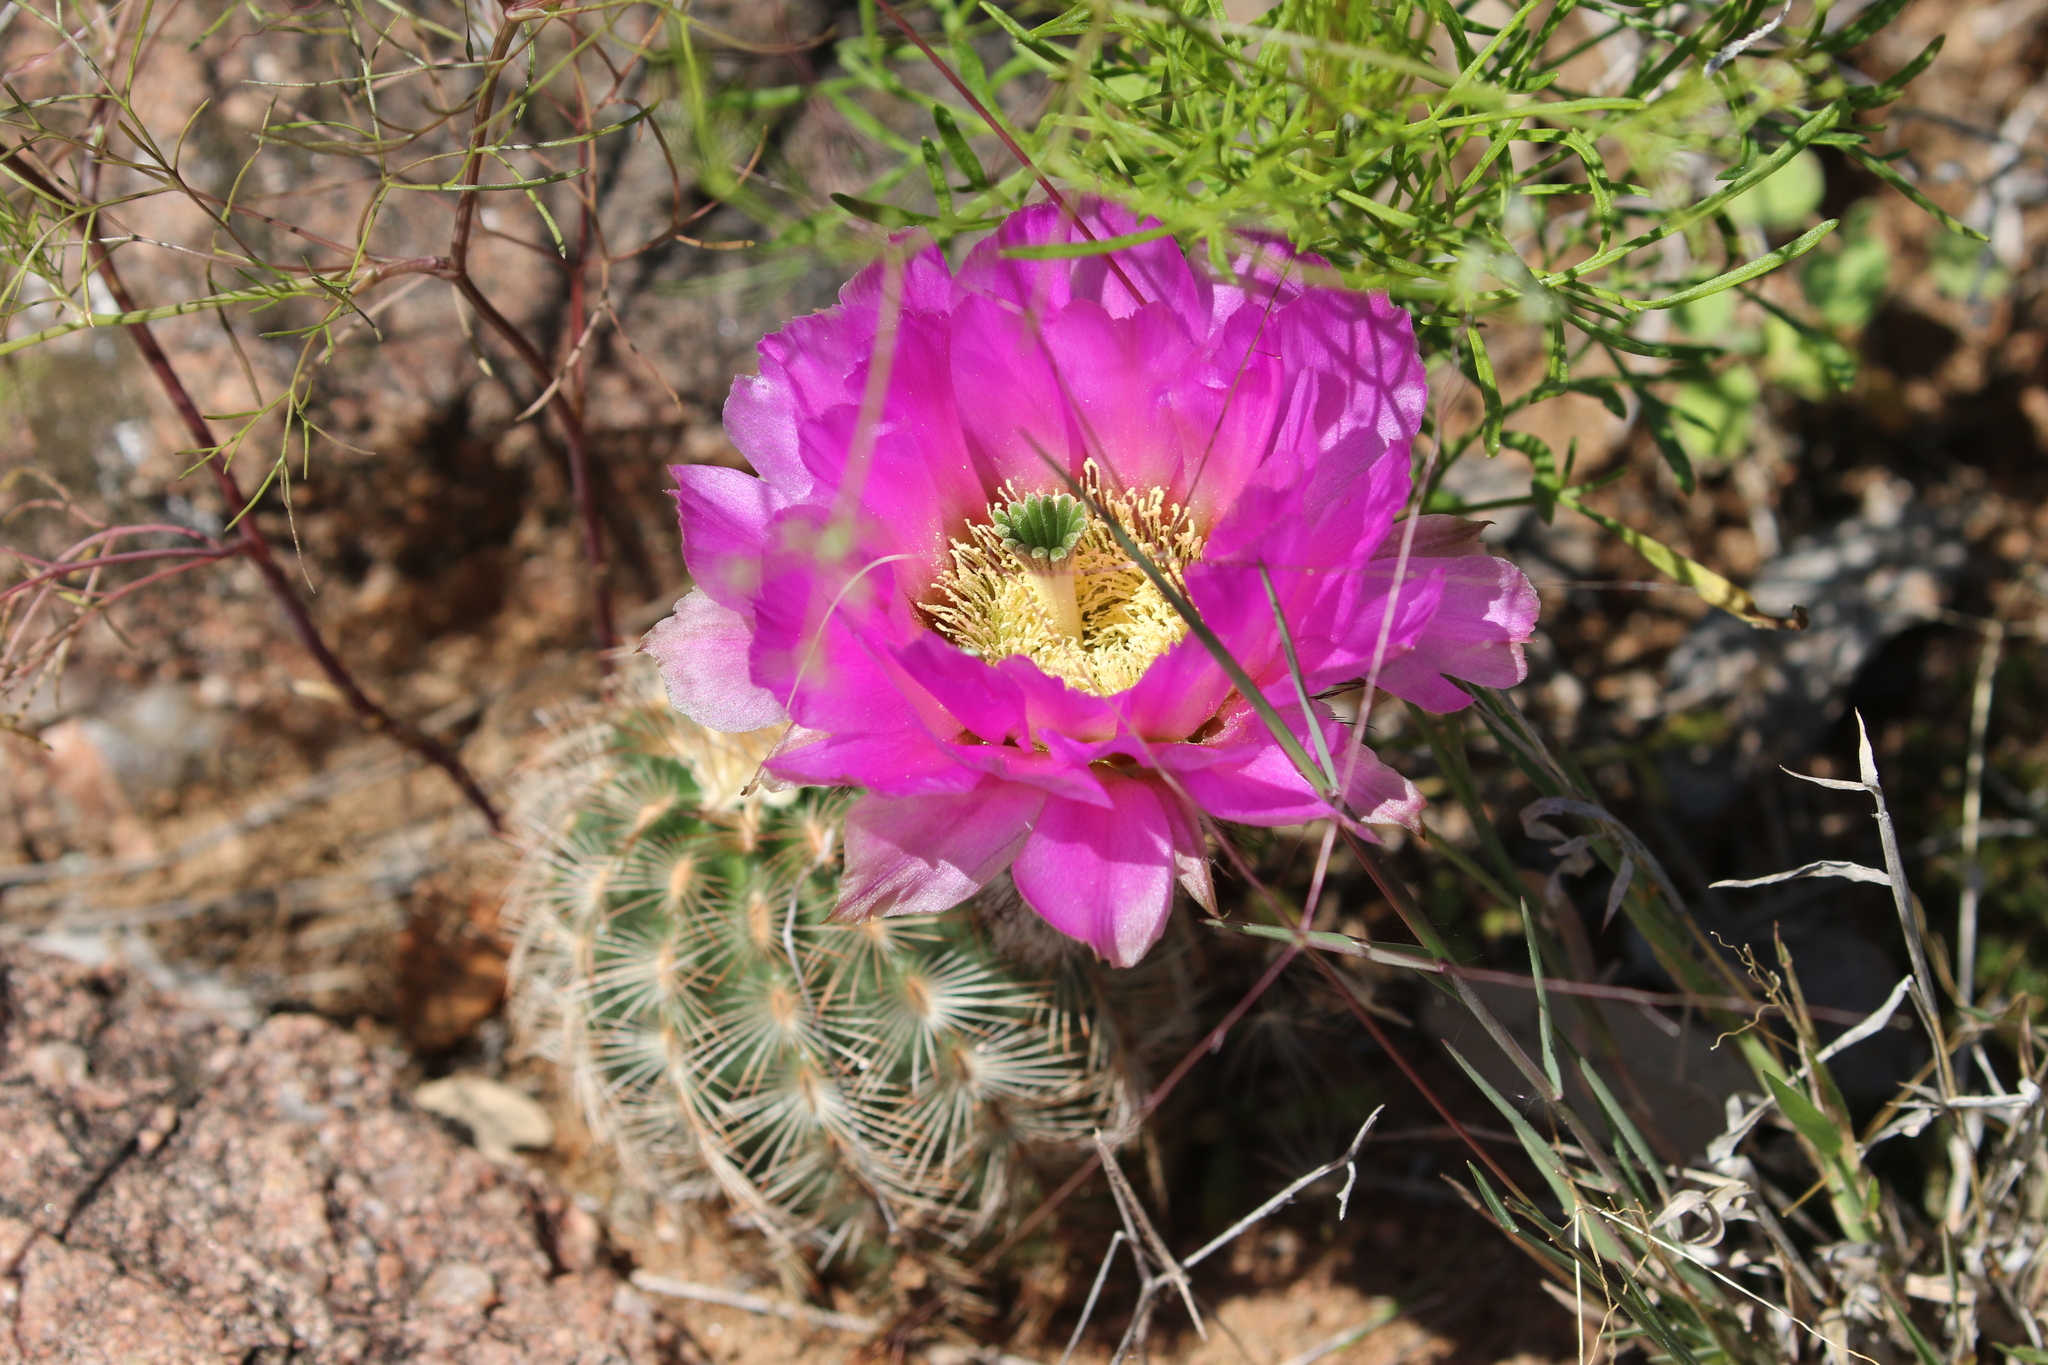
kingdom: Plantae
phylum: Tracheophyta
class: Magnoliopsida
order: Caryophyllales
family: Cactaceae
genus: Echinocereus
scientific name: Echinocereus reichenbachii
